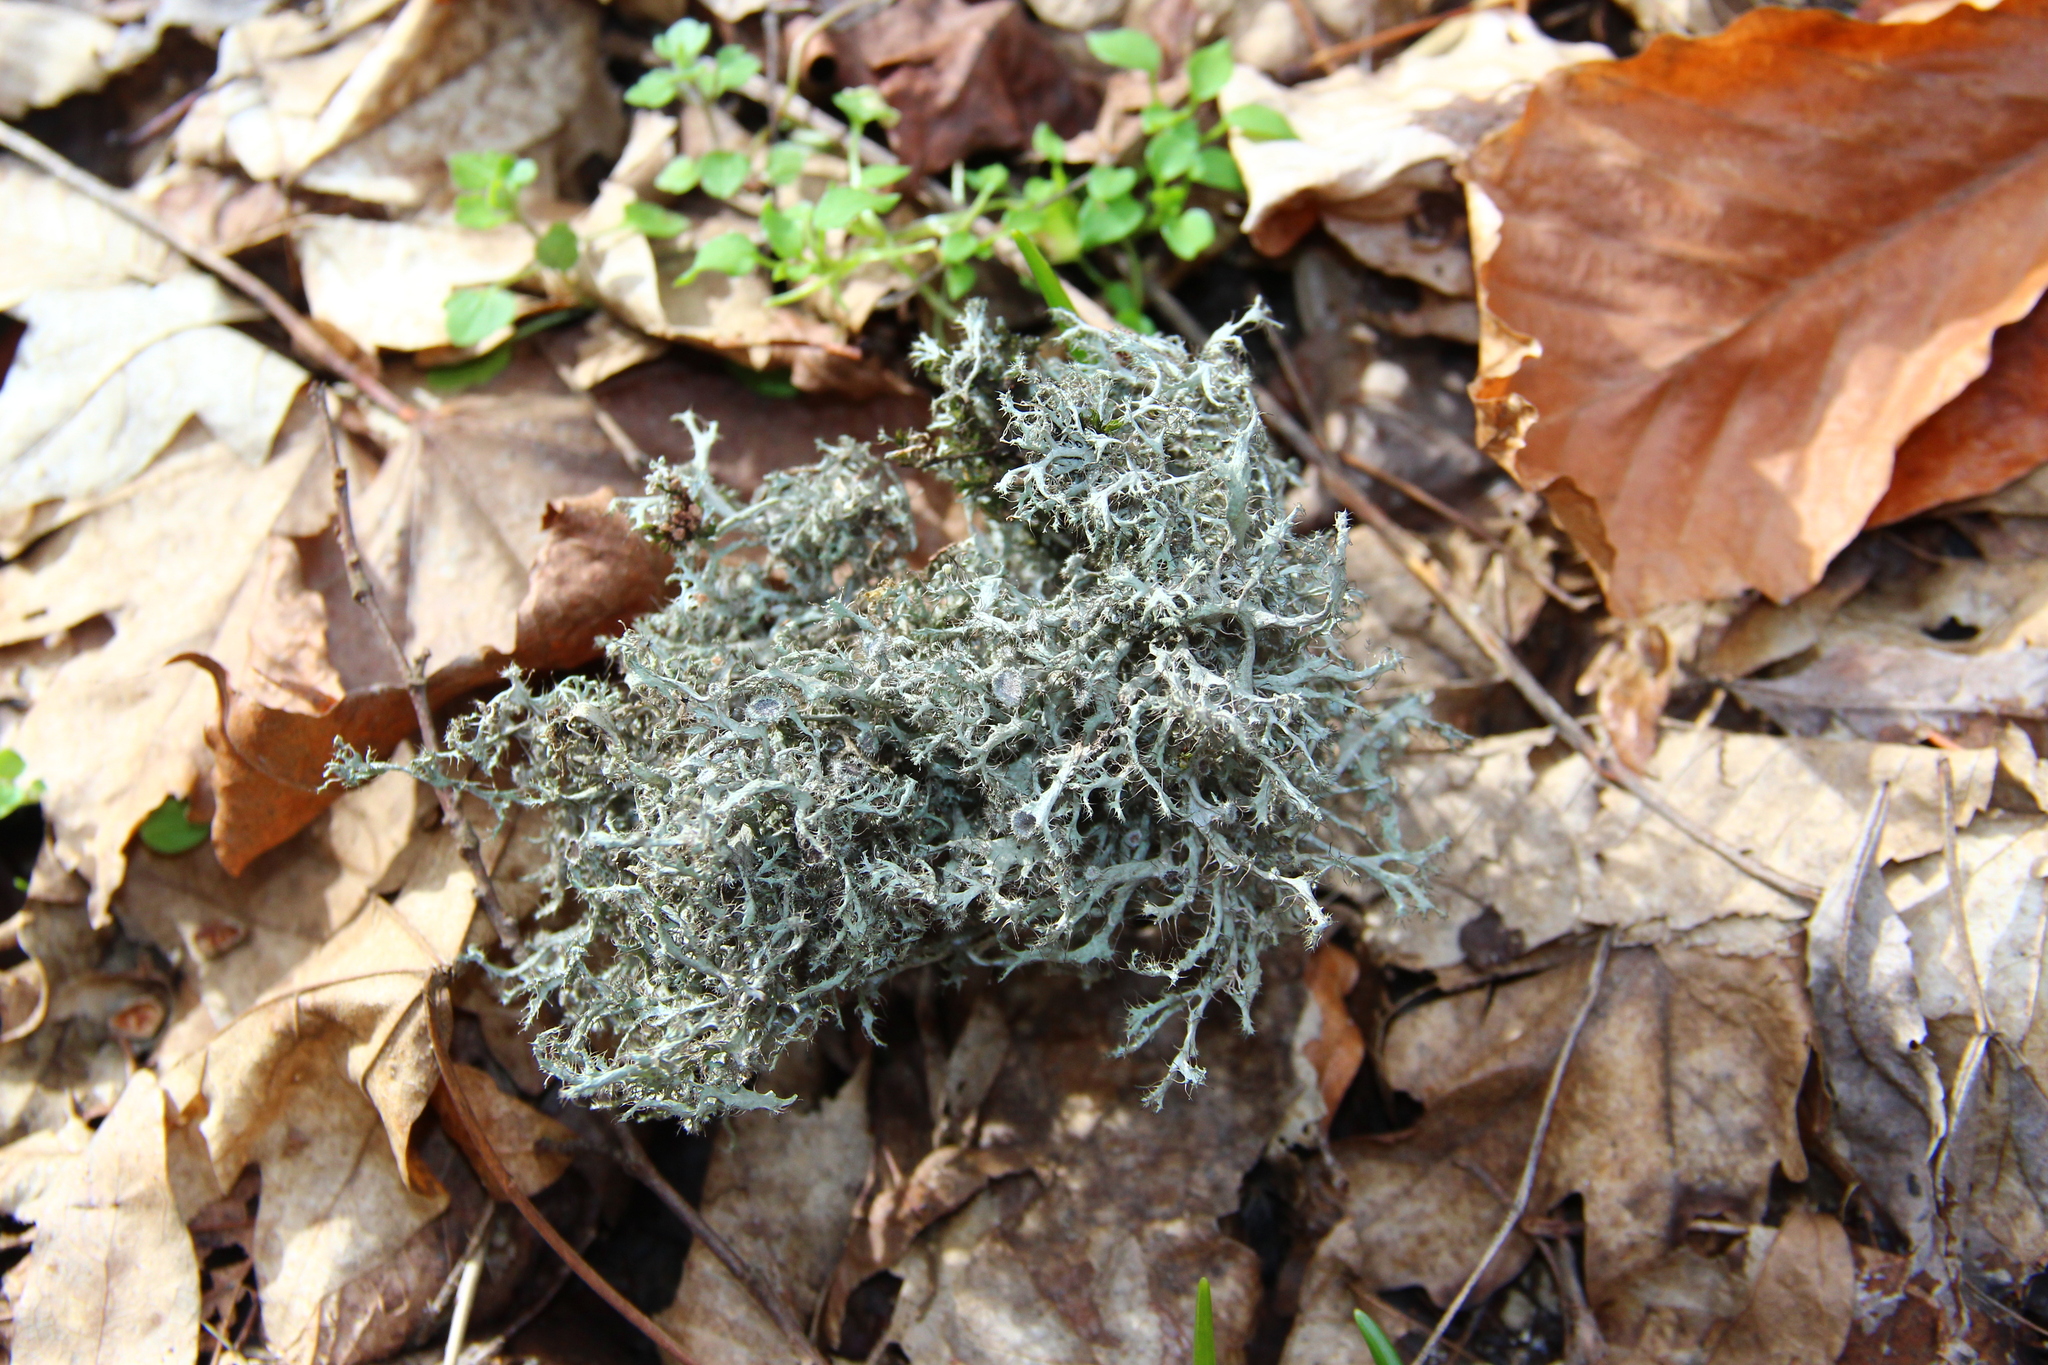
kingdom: Fungi
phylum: Ascomycota
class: Lecanoromycetes
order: Lecanorales
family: Parmeliaceae
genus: Pseudevernia
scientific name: Pseudevernia furfuracea
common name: Tree moss
